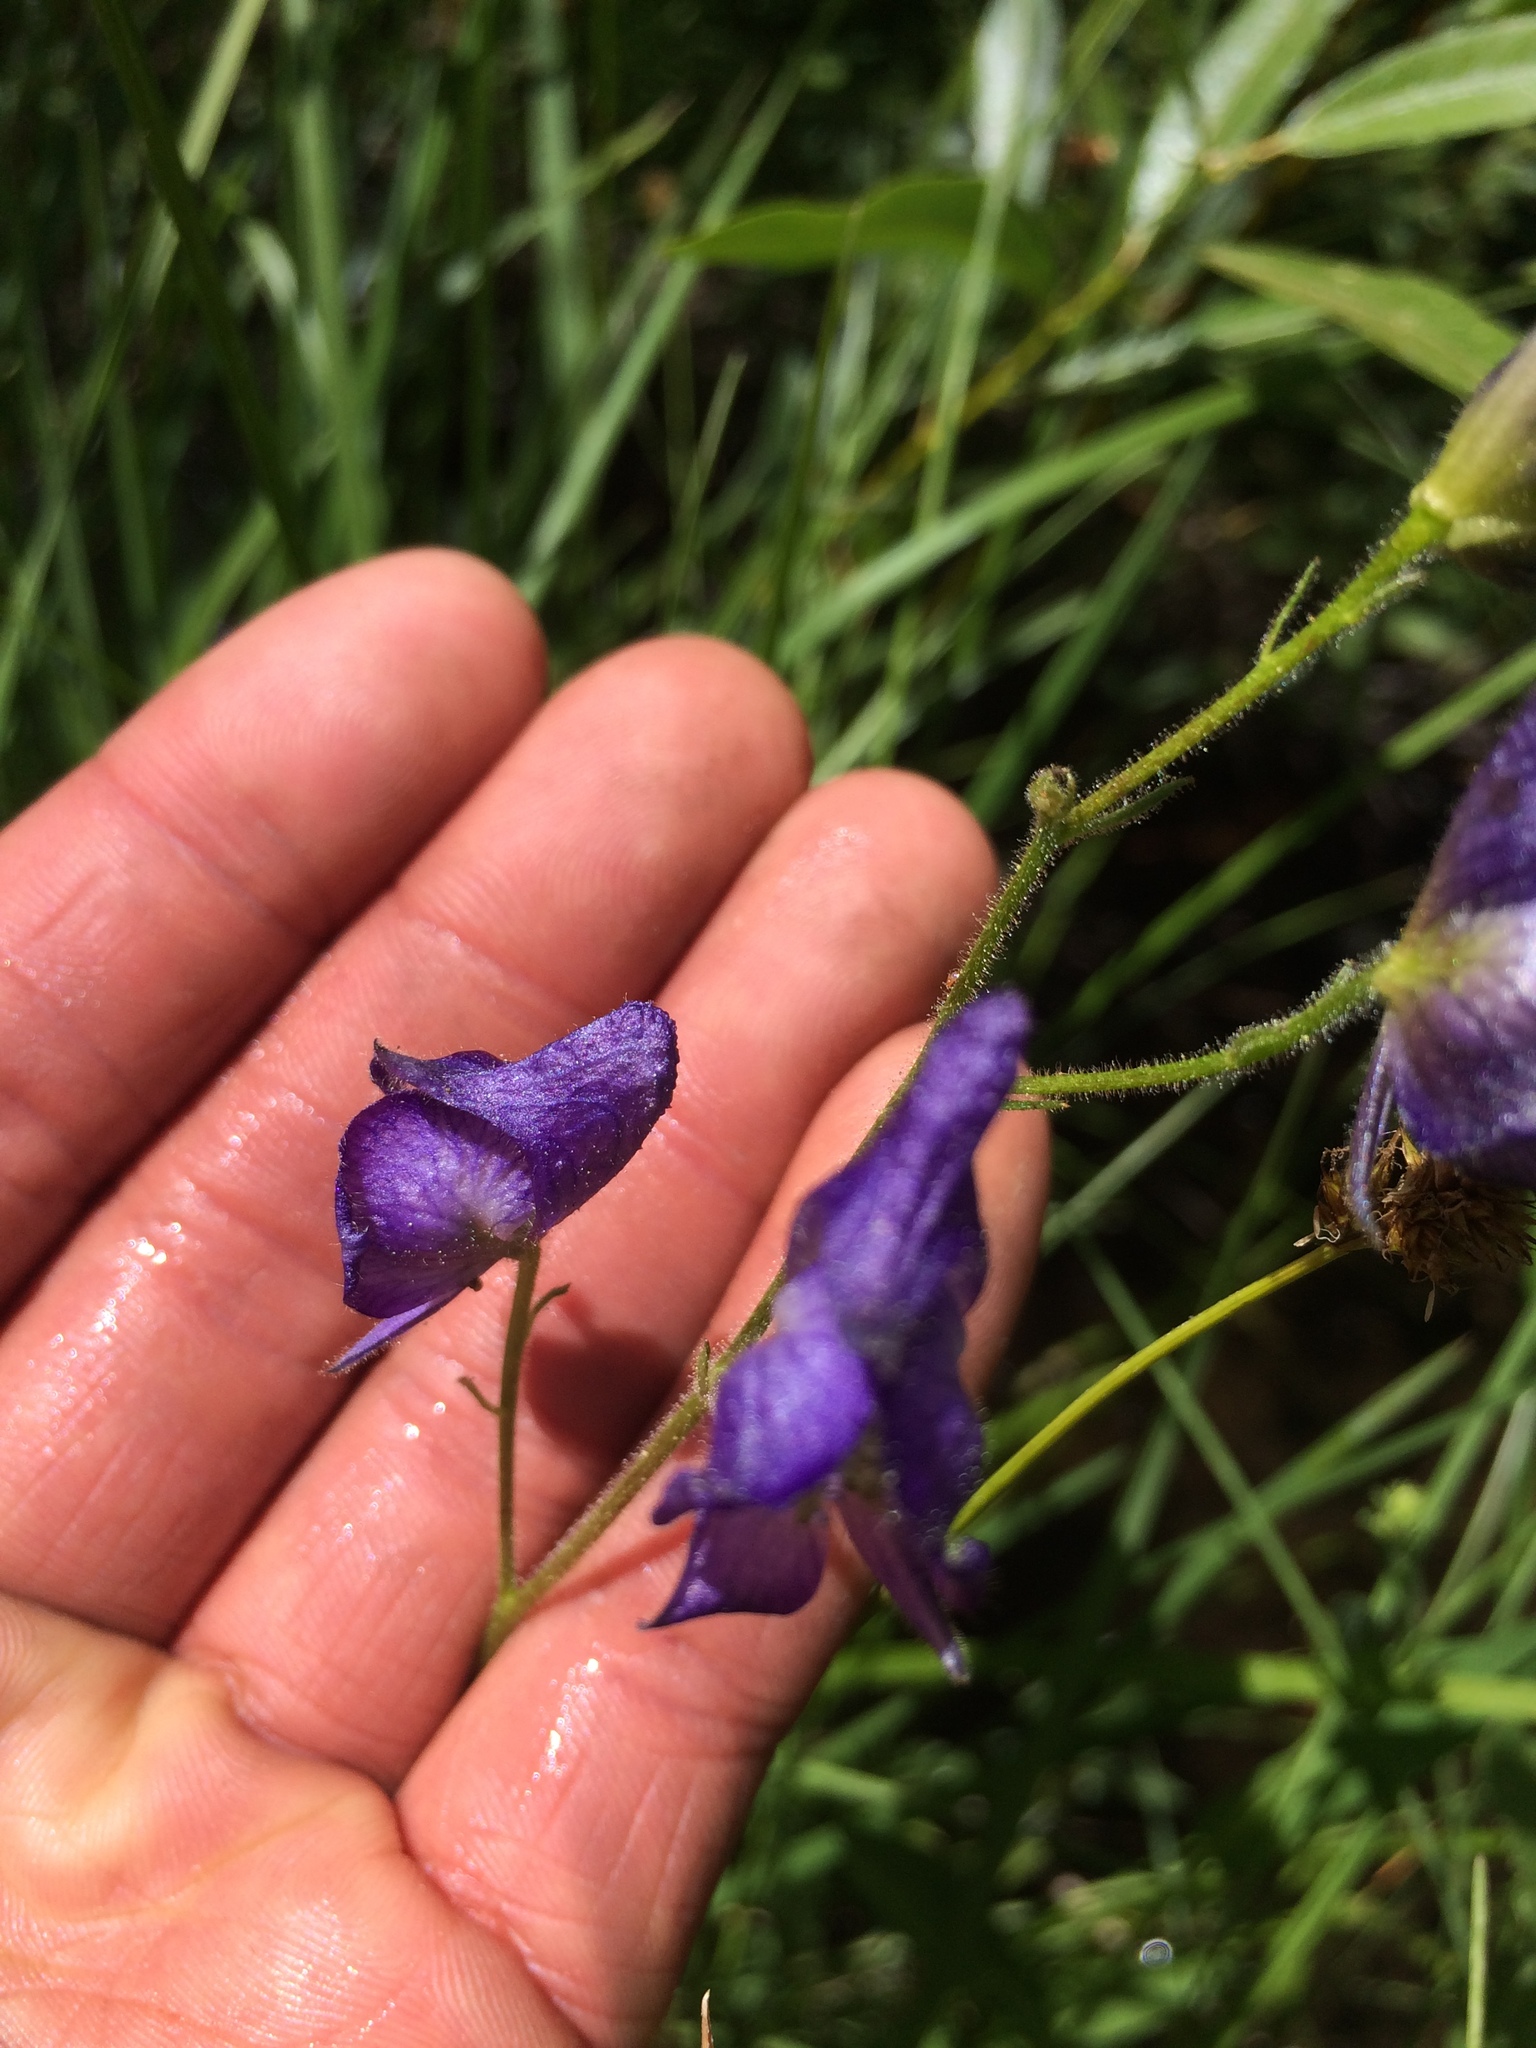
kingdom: Plantae
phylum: Tracheophyta
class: Magnoliopsida
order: Ranunculales
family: Ranunculaceae
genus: Aconitum
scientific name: Aconitum columbianum
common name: Columbia aconite
